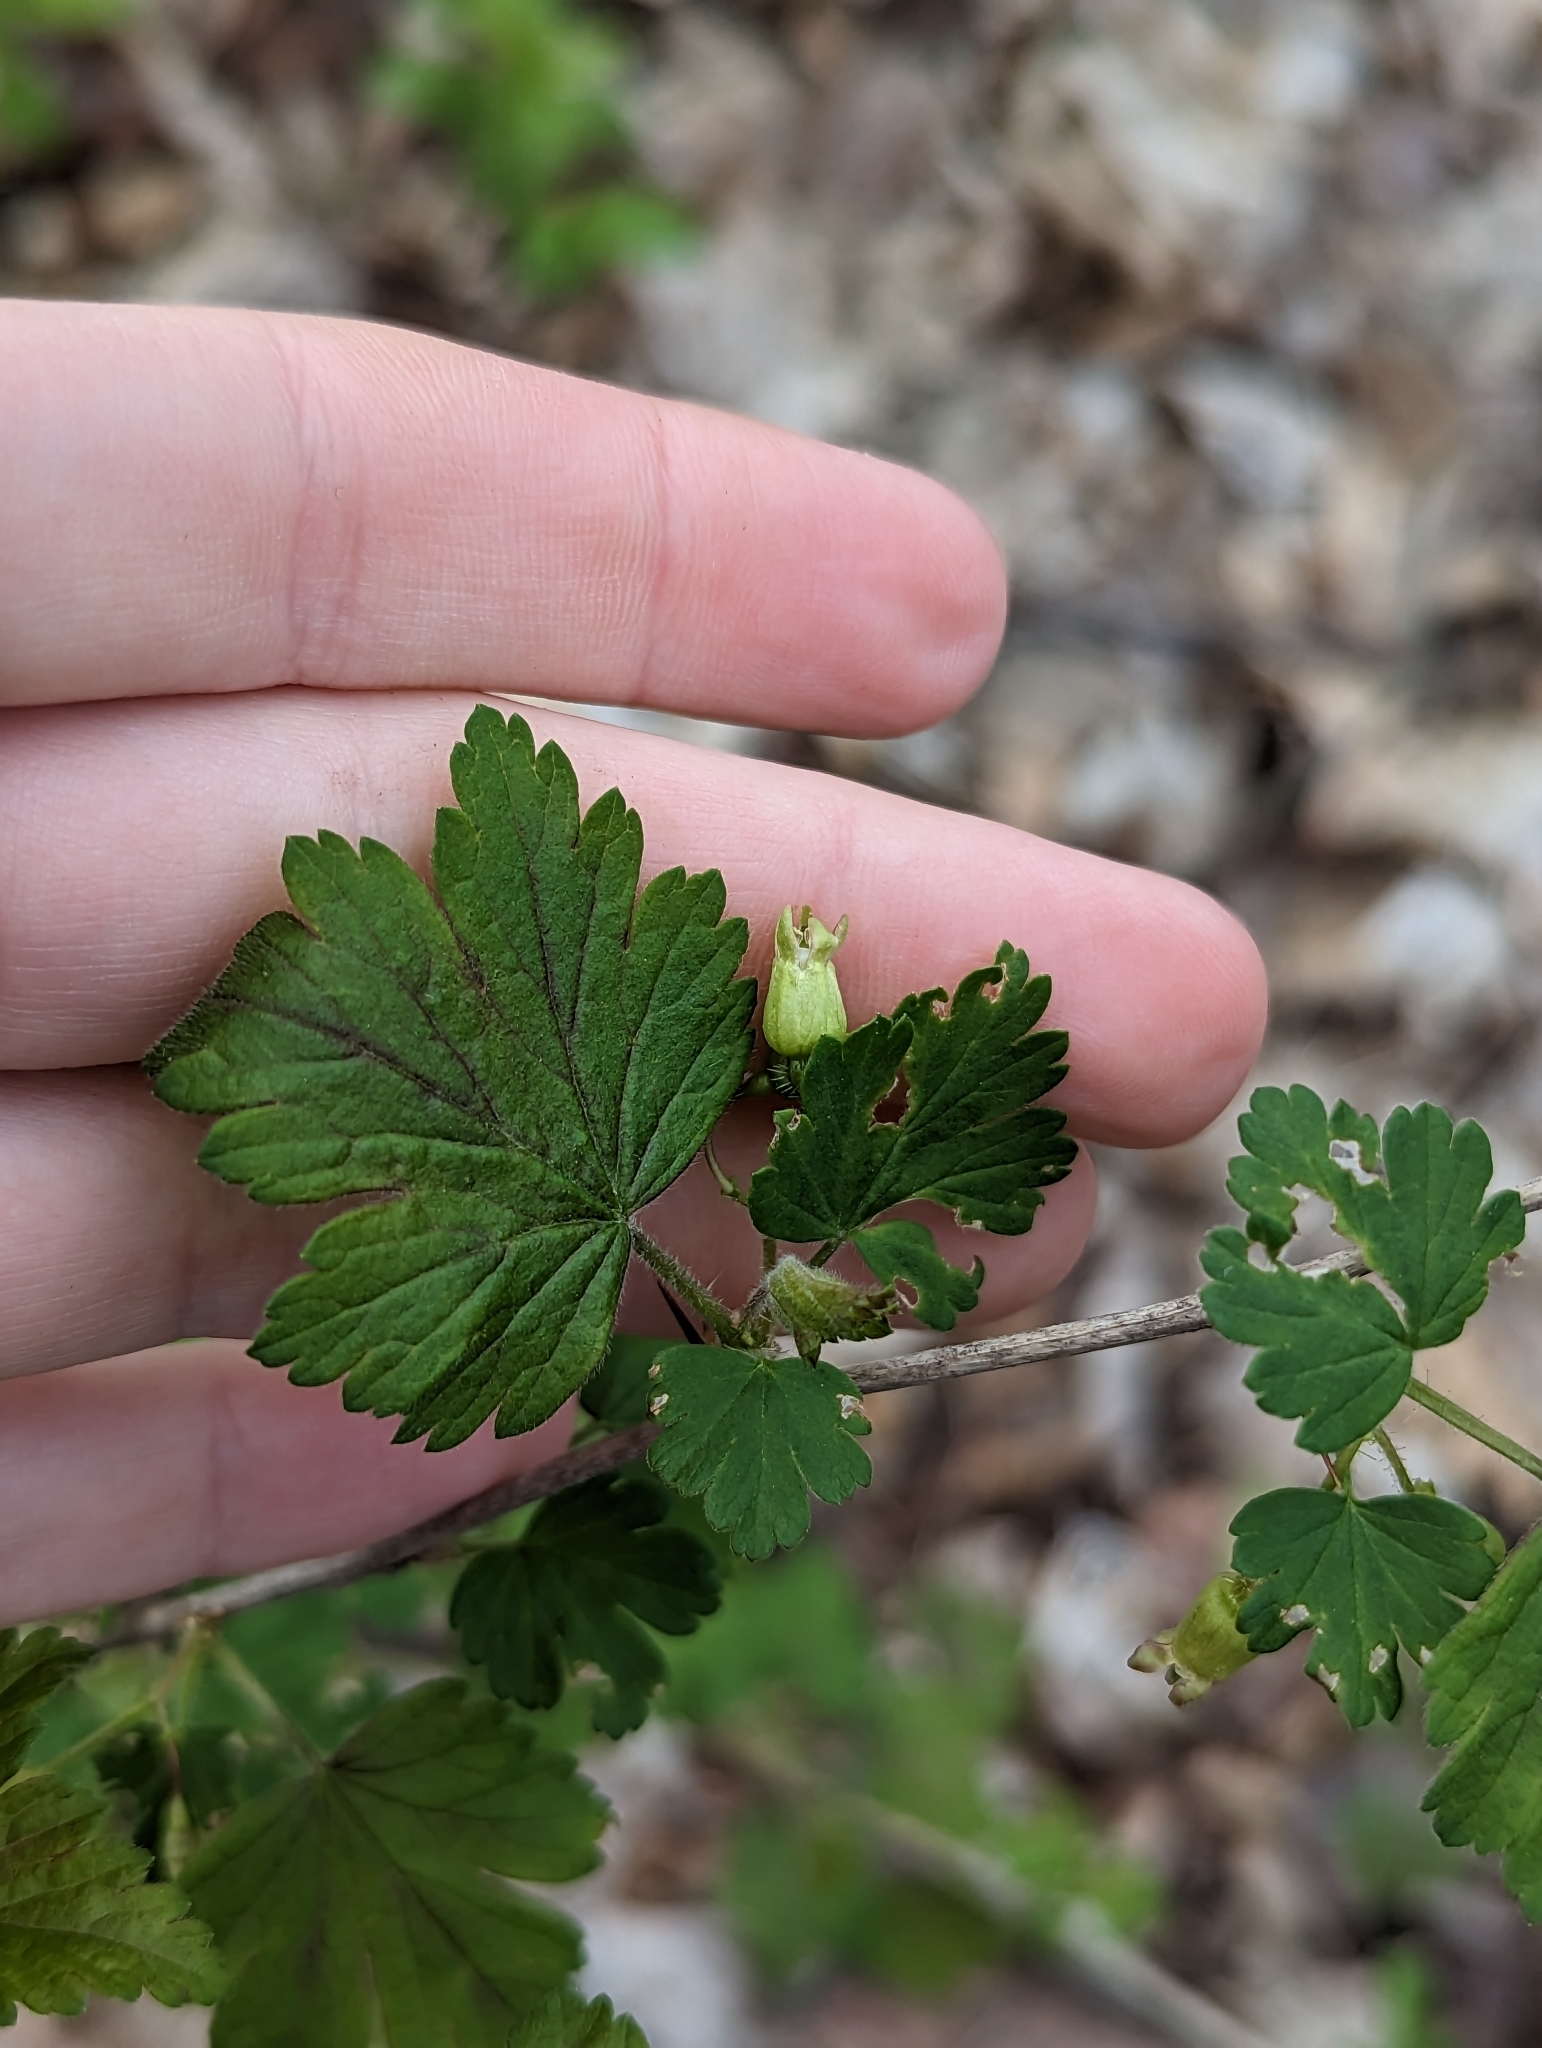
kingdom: Plantae
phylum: Tracheophyta
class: Magnoliopsida
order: Saxifragales
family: Grossulariaceae
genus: Ribes
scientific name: Ribes cynosbati
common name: American gooseberry
